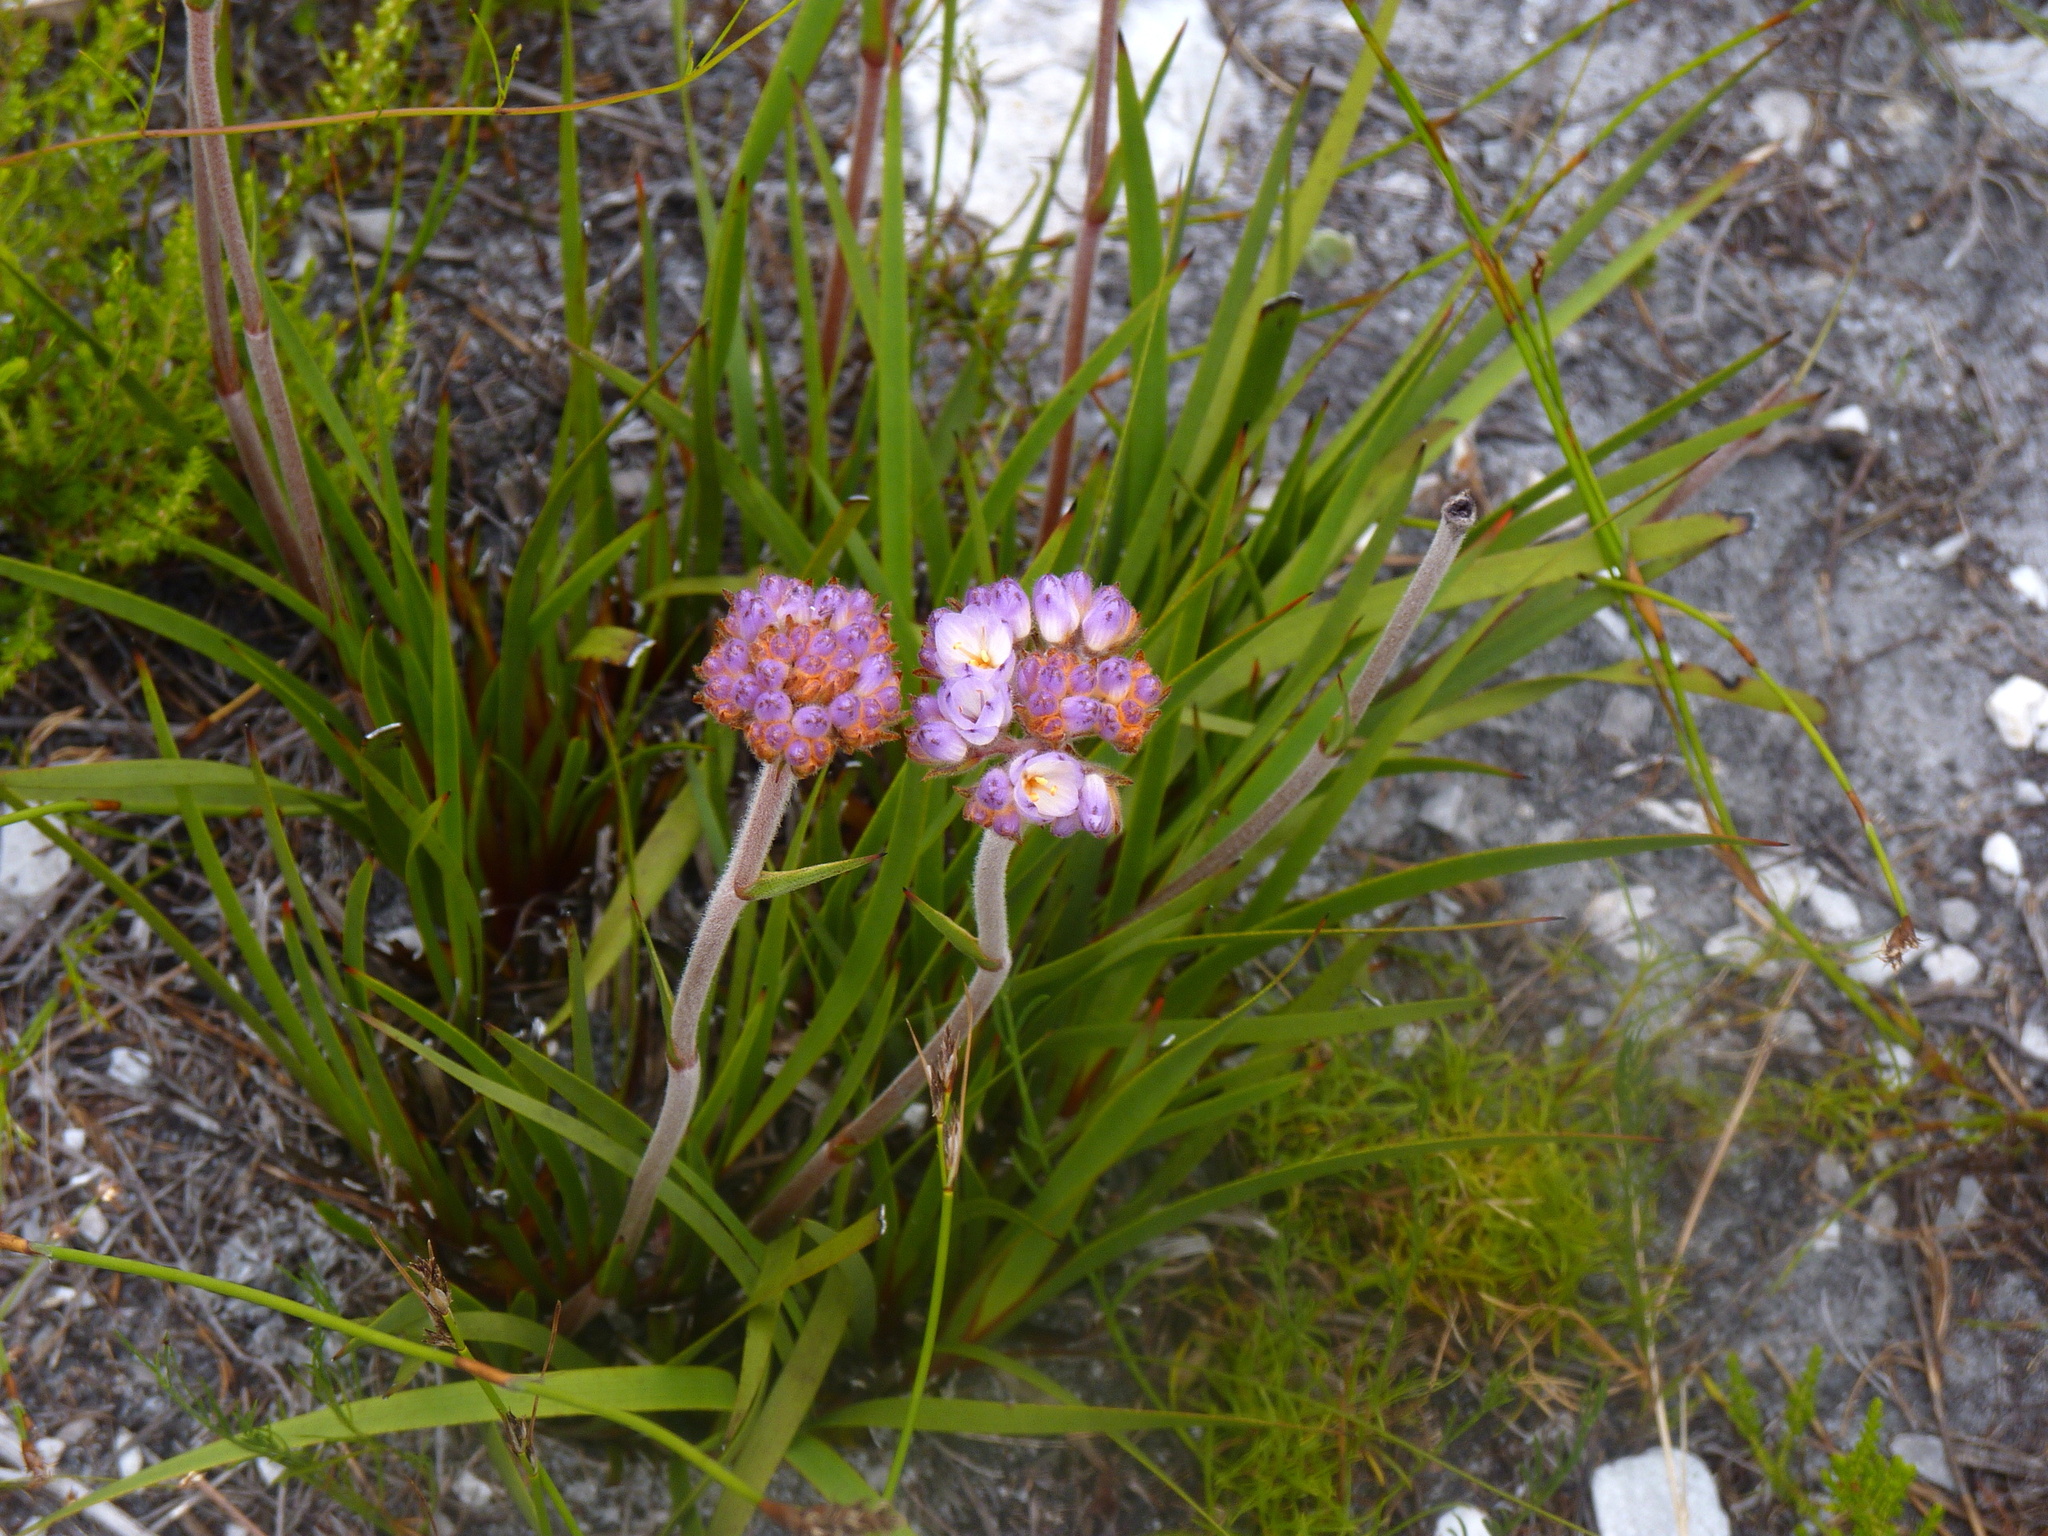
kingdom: Plantae
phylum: Tracheophyta
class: Liliopsida
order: Commelinales
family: Haemodoraceae
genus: Dilatris
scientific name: Dilatris pillansii
